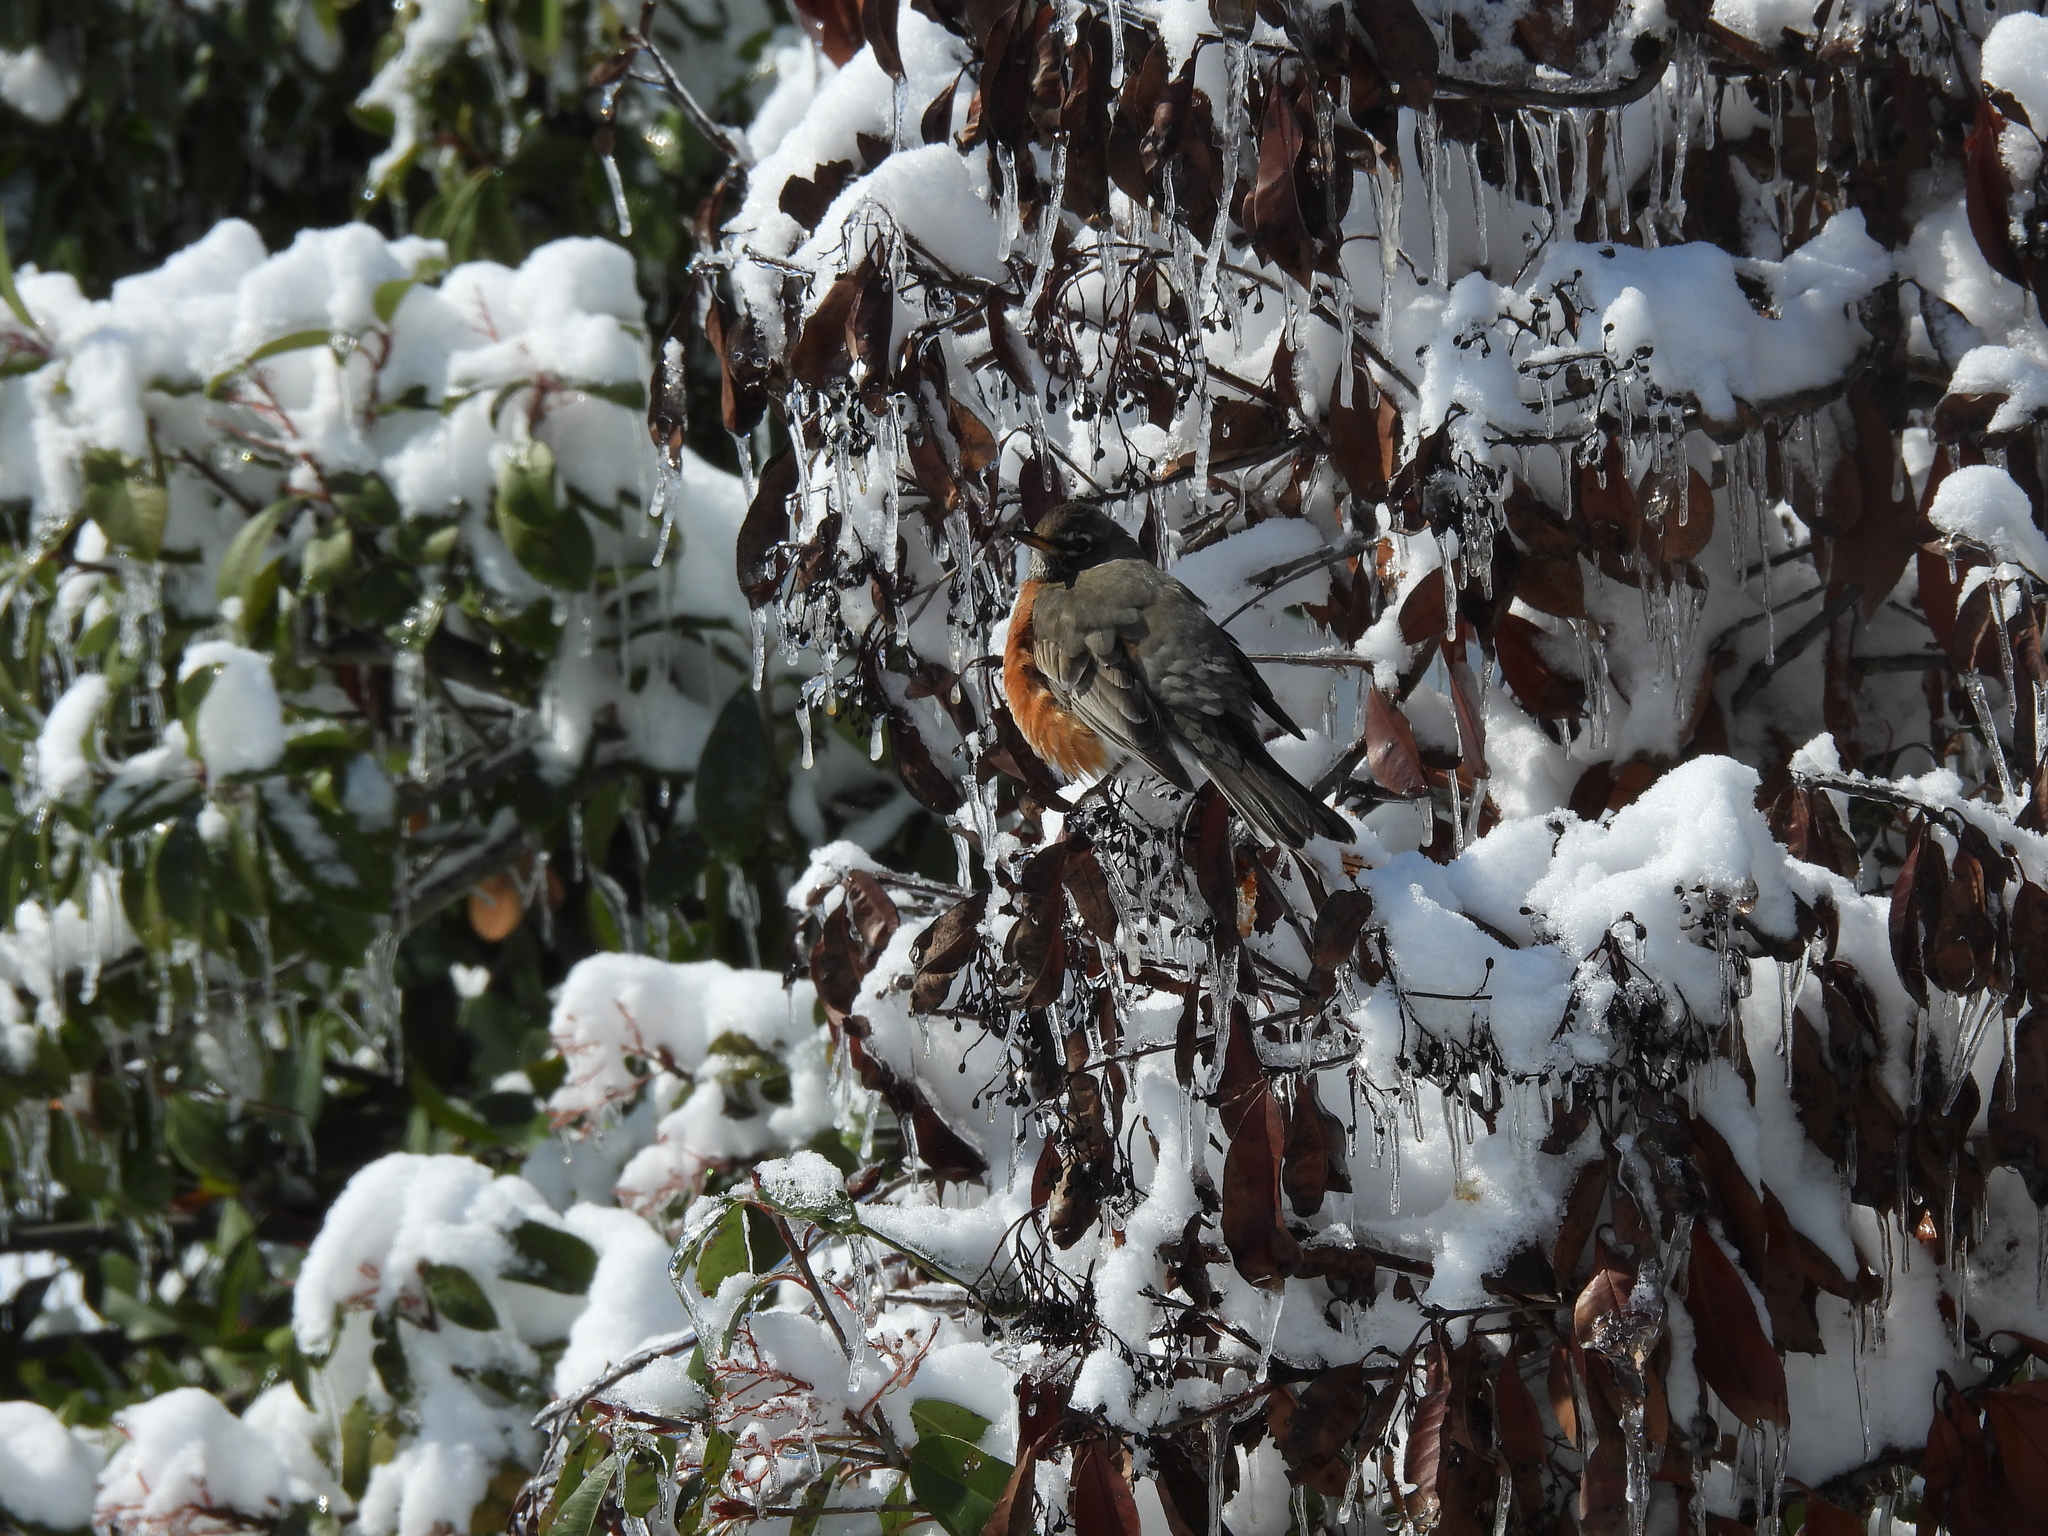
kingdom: Animalia
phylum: Chordata
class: Aves
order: Passeriformes
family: Turdidae
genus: Turdus
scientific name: Turdus migratorius
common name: American robin
